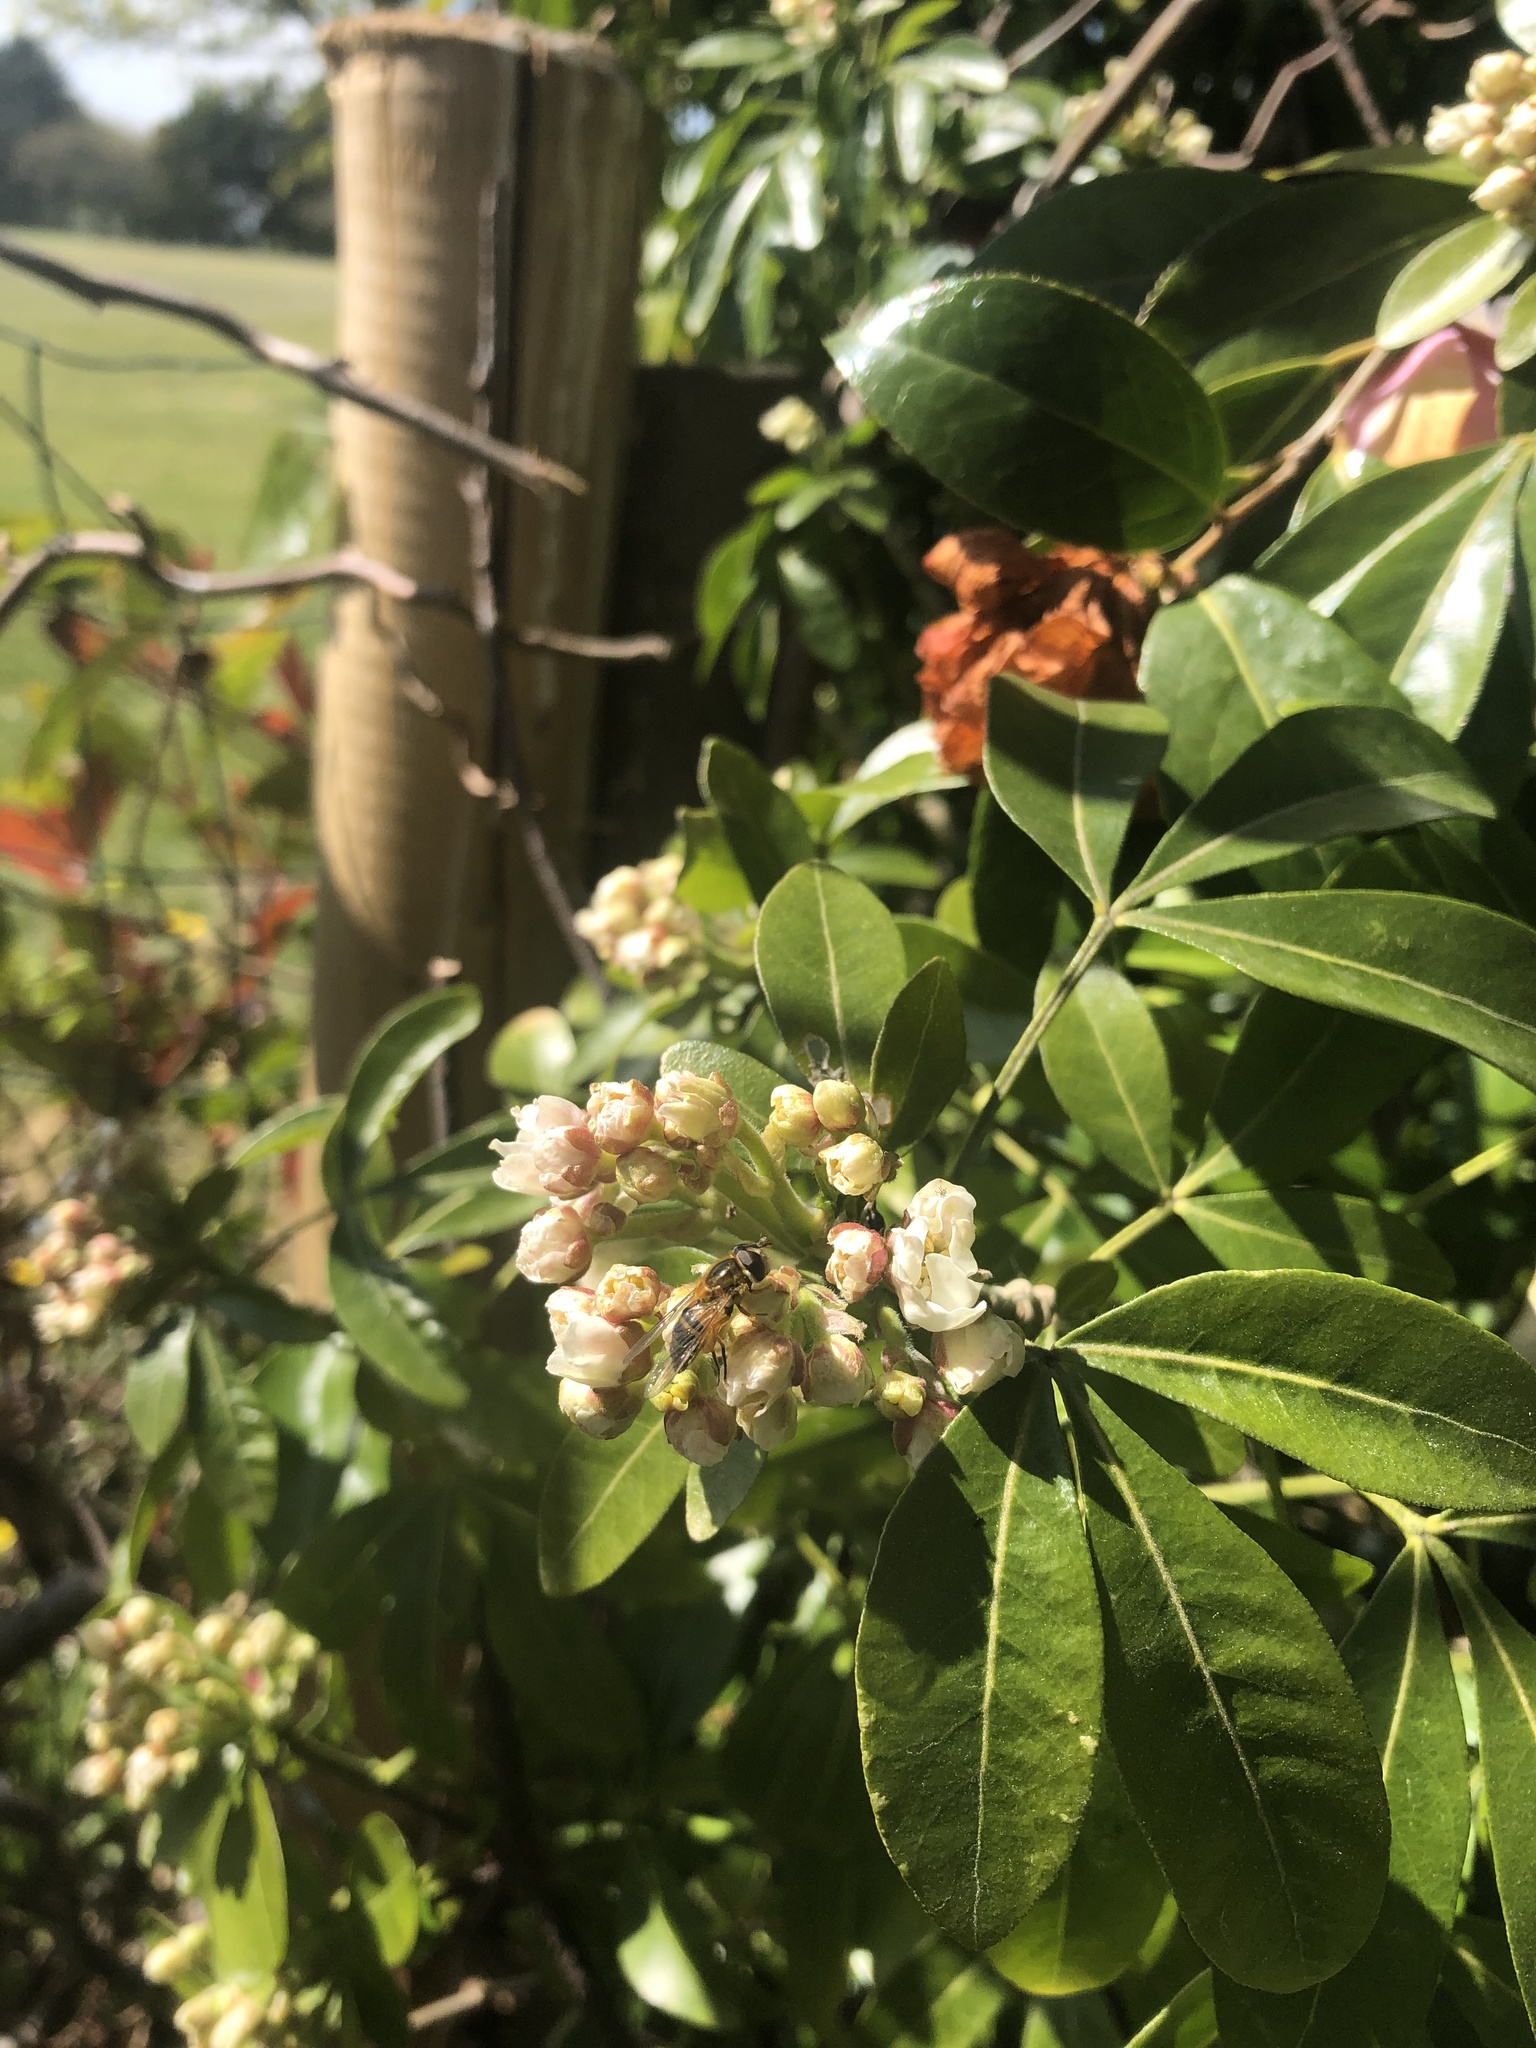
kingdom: Animalia
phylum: Arthropoda
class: Insecta
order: Diptera
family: Syrphidae
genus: Epistrophe
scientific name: Epistrophe eligans
